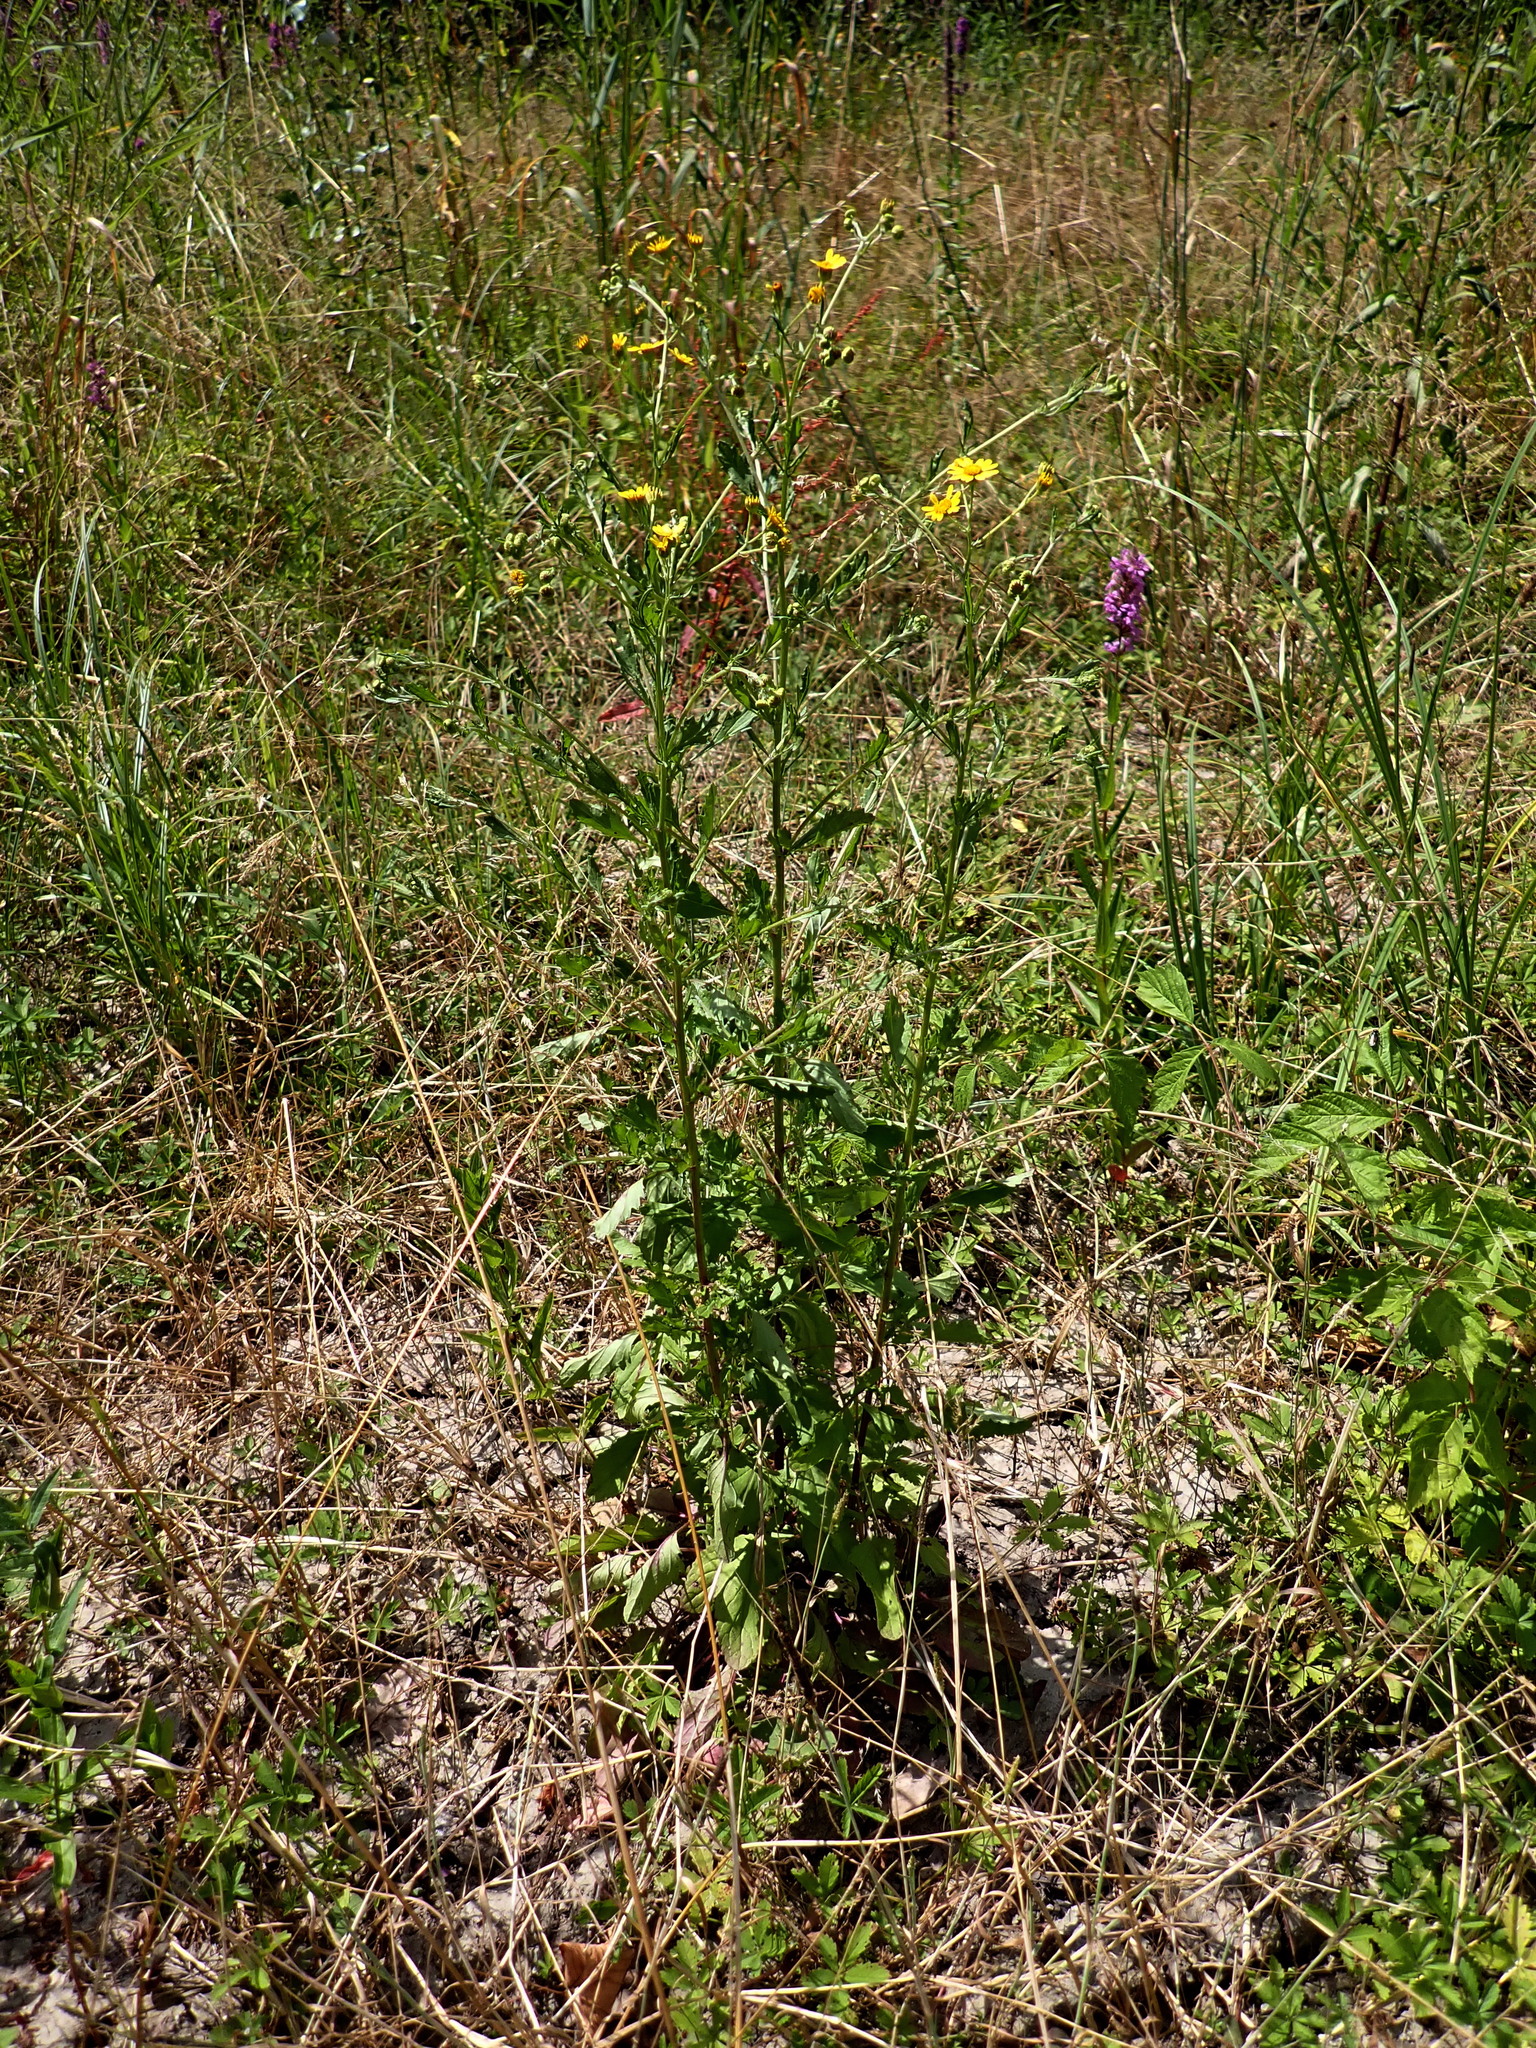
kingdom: Plantae
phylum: Tracheophyta
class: Magnoliopsida
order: Asterales
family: Asteraceae
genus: Jacobaea
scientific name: Jacobaea erratica
